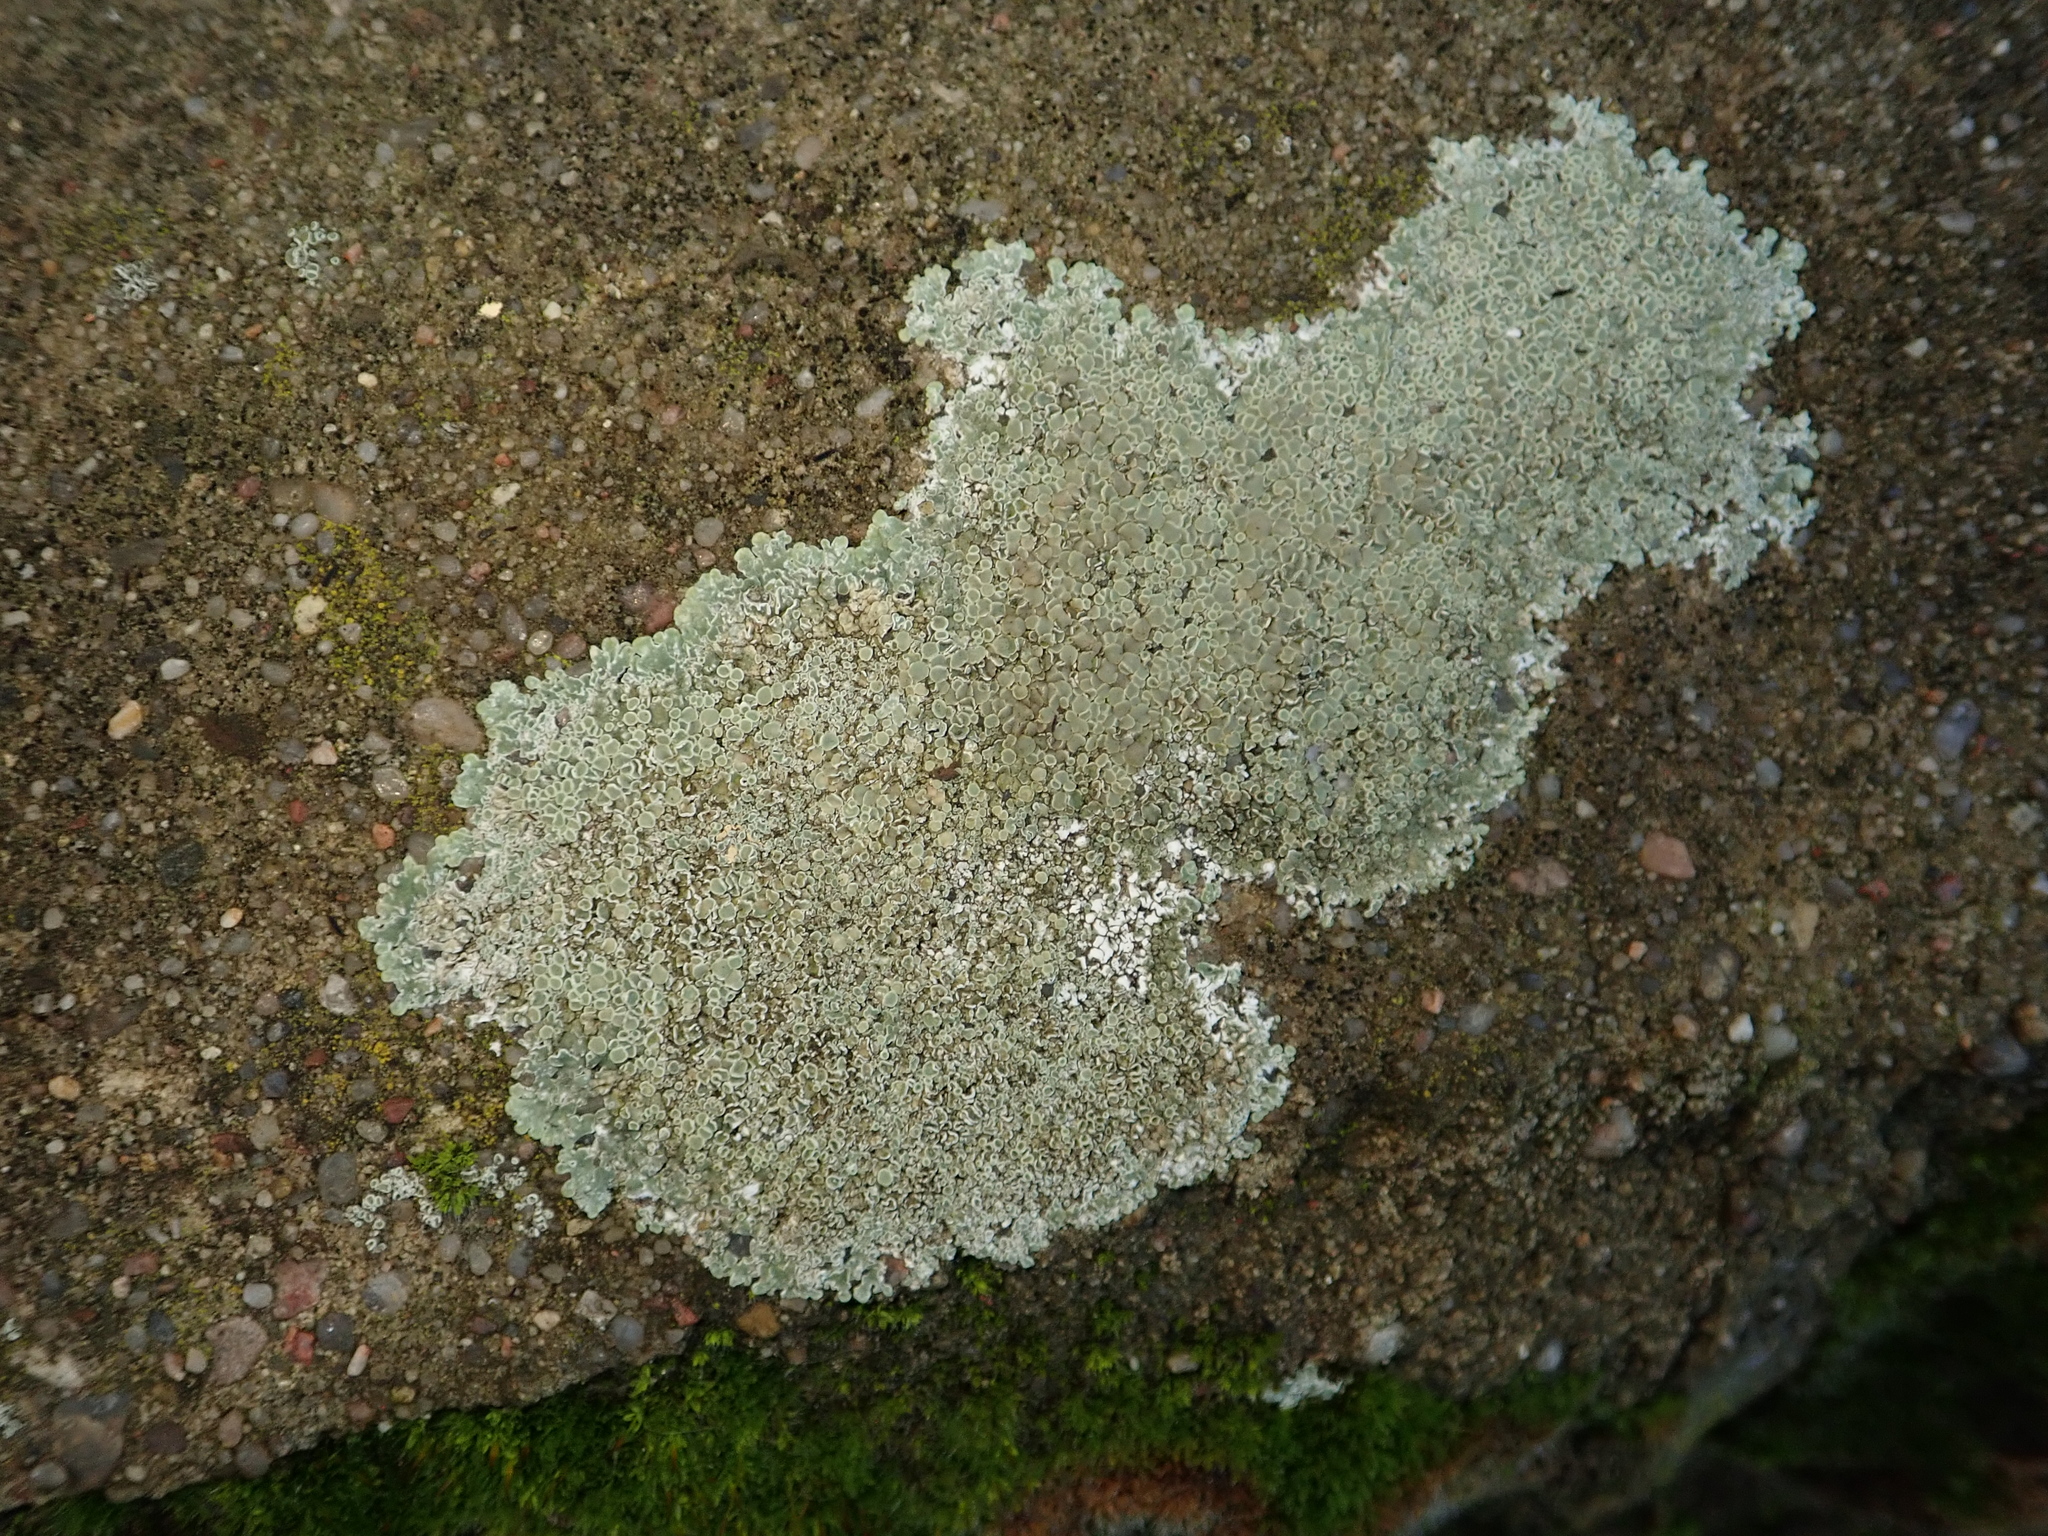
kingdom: Fungi
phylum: Ascomycota
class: Lecanoromycetes
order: Lecanorales
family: Lecanoraceae
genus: Protoparmeliopsis
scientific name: Protoparmeliopsis muralis
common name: Stonewall rim lichen
